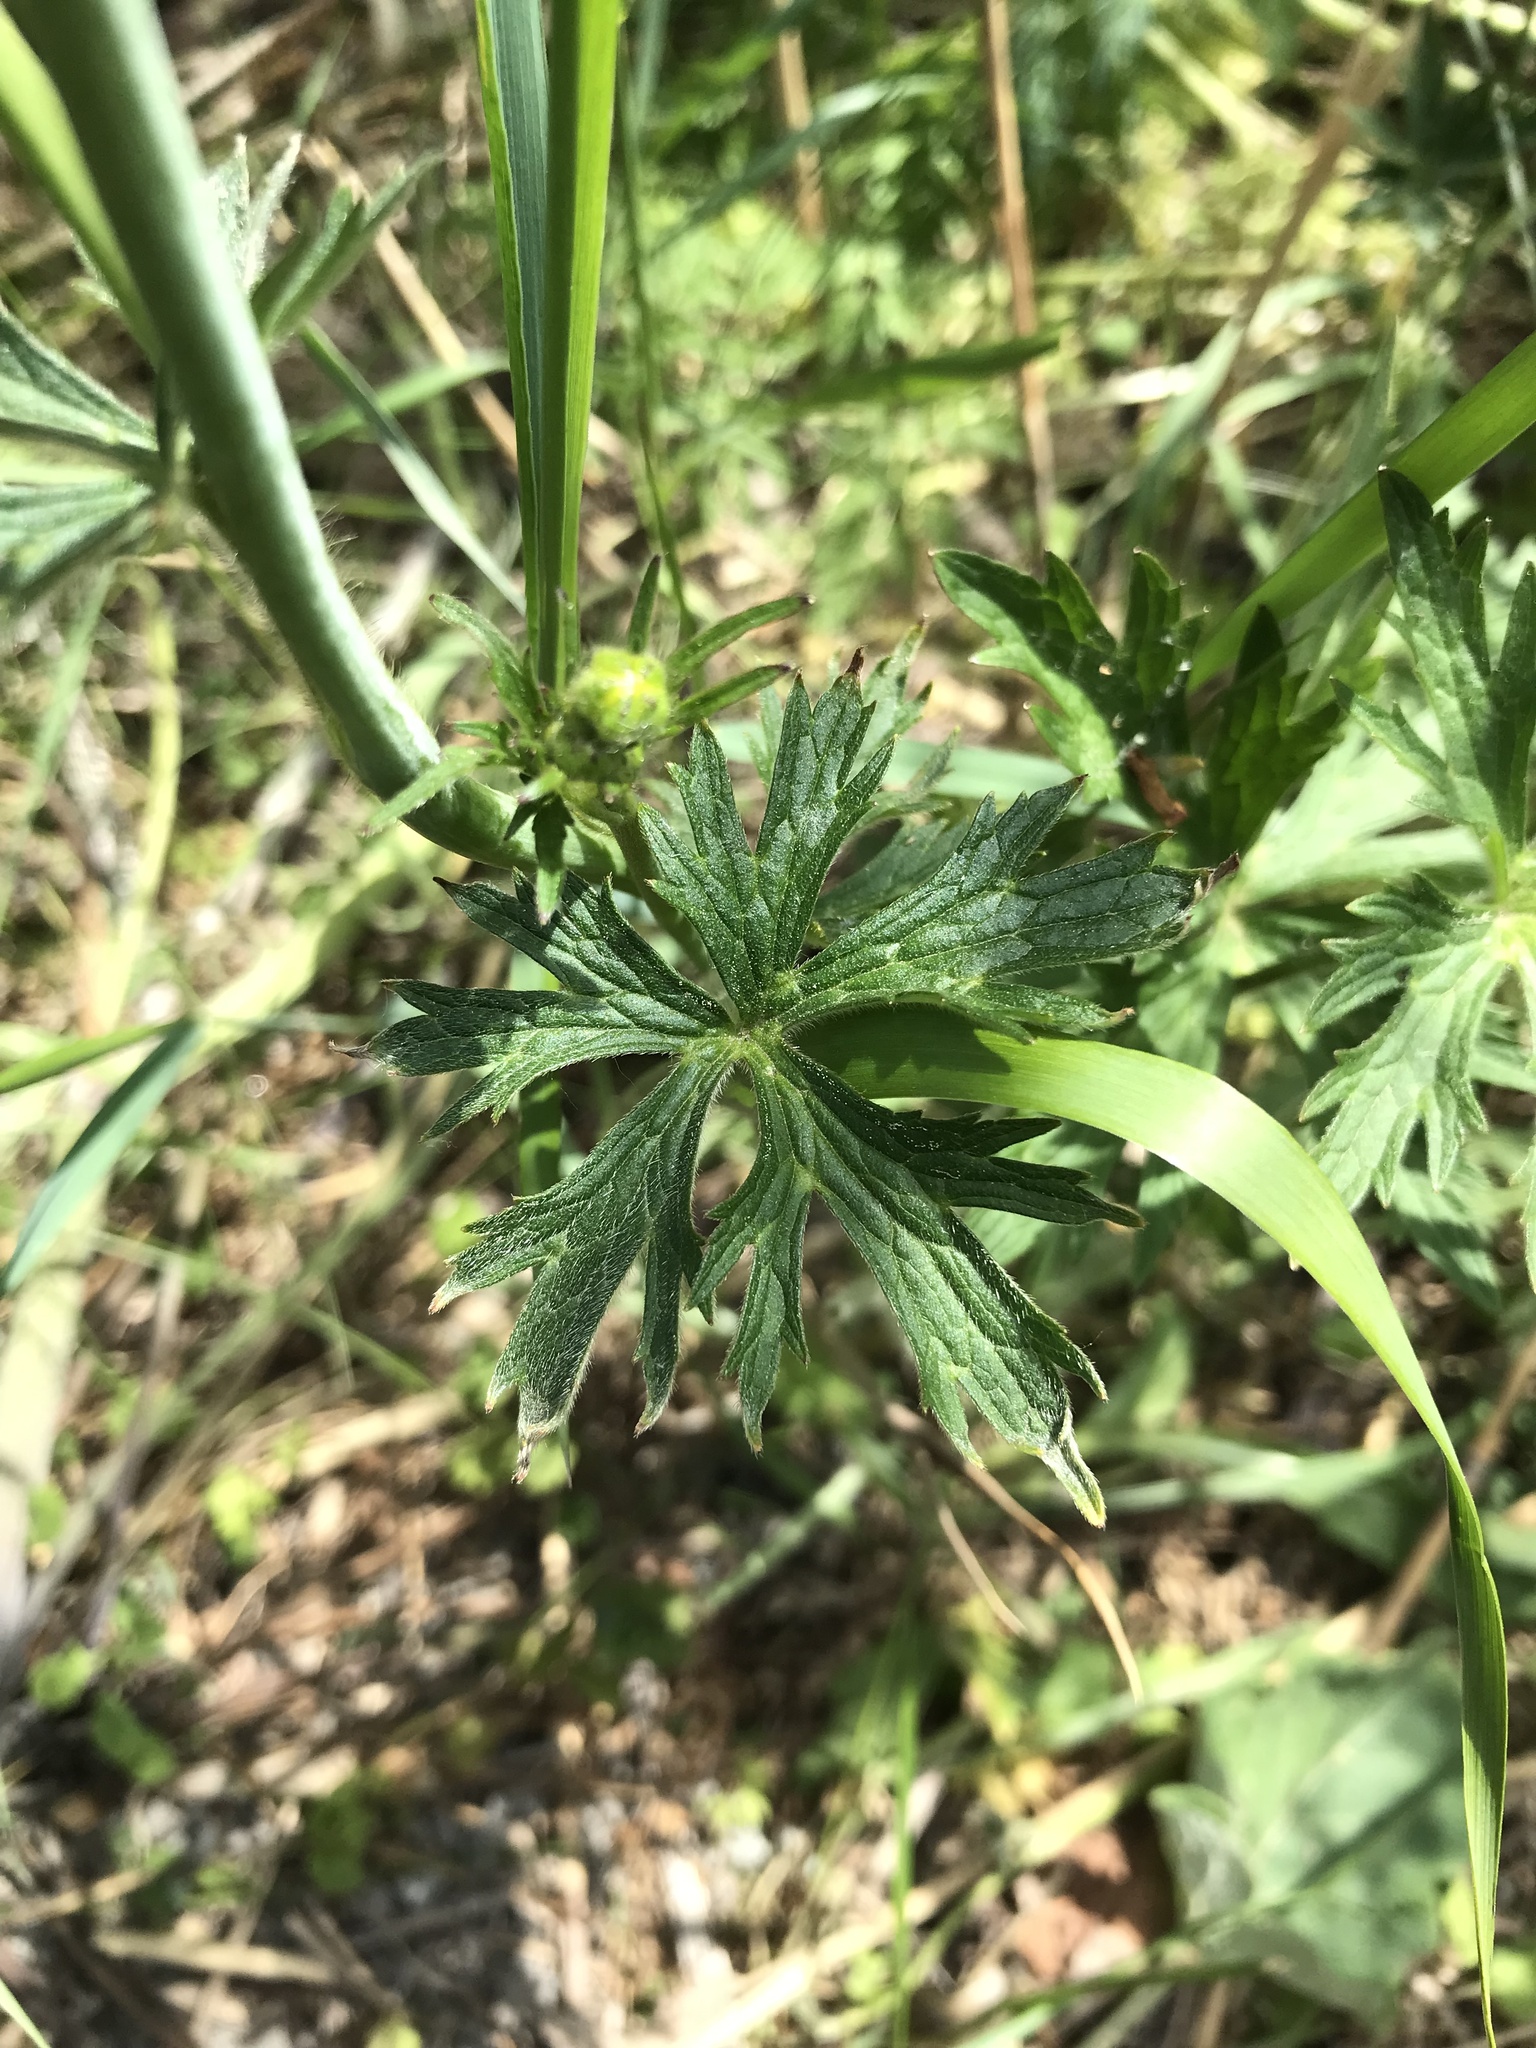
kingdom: Plantae
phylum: Tracheophyta
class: Magnoliopsida
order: Ranunculales
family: Ranunculaceae
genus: Ranunculus
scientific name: Ranunculus acris
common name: Meadow buttercup
